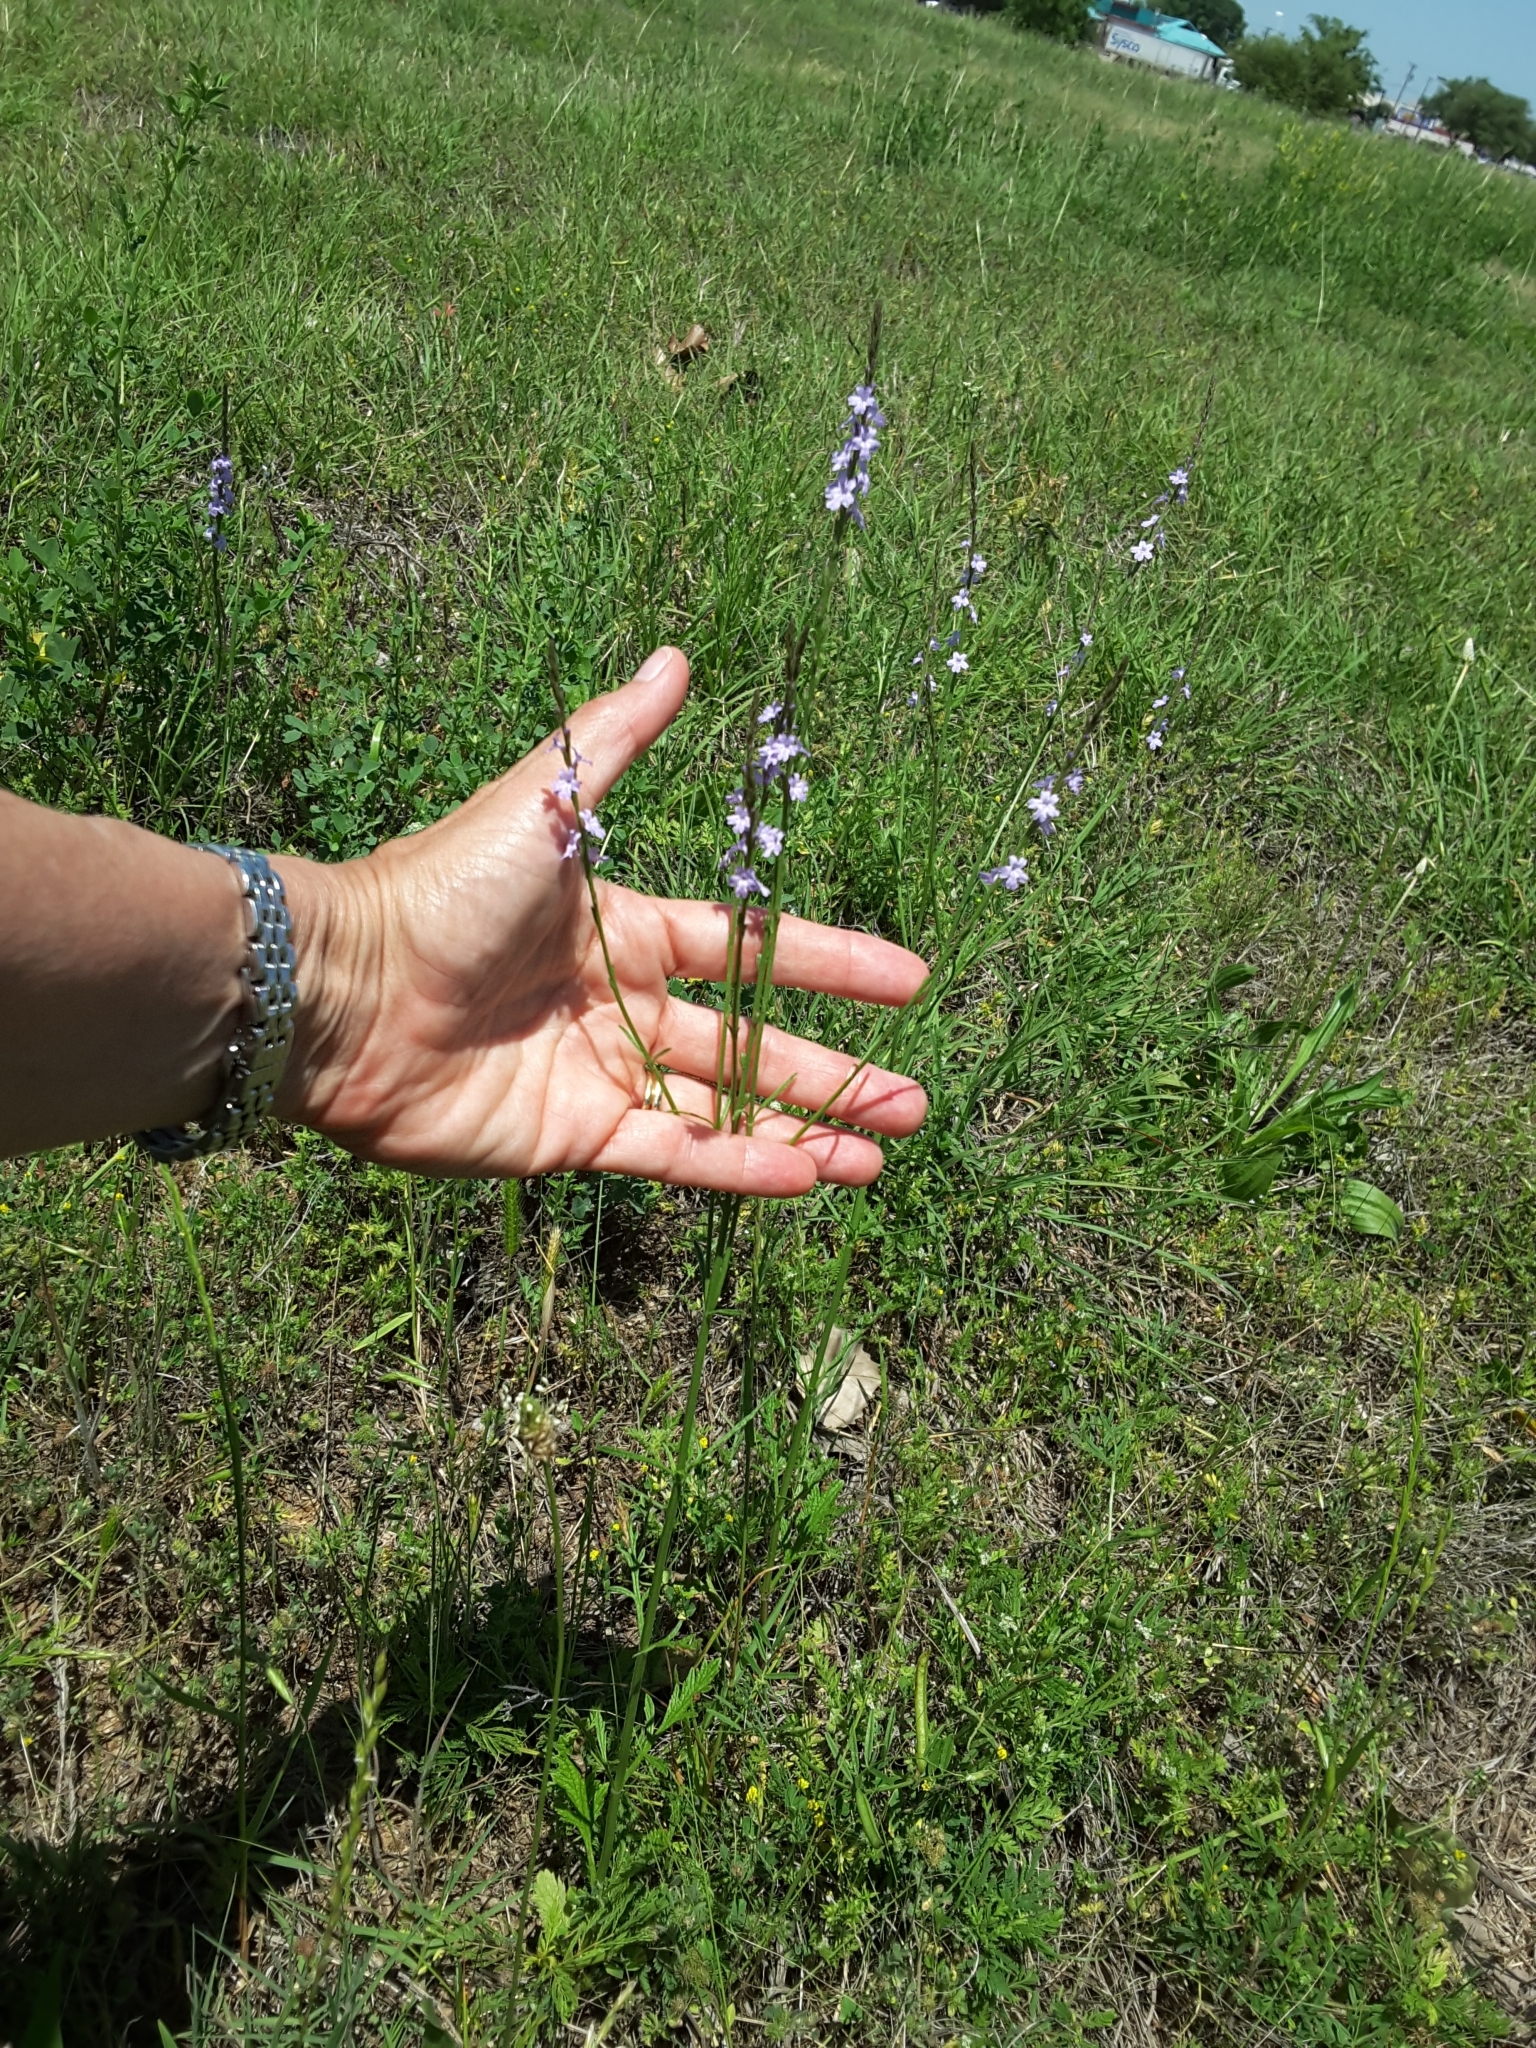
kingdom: Plantae
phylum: Tracheophyta
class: Magnoliopsida
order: Lamiales
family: Verbenaceae
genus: Verbena
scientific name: Verbena halei
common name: Texas vervain
